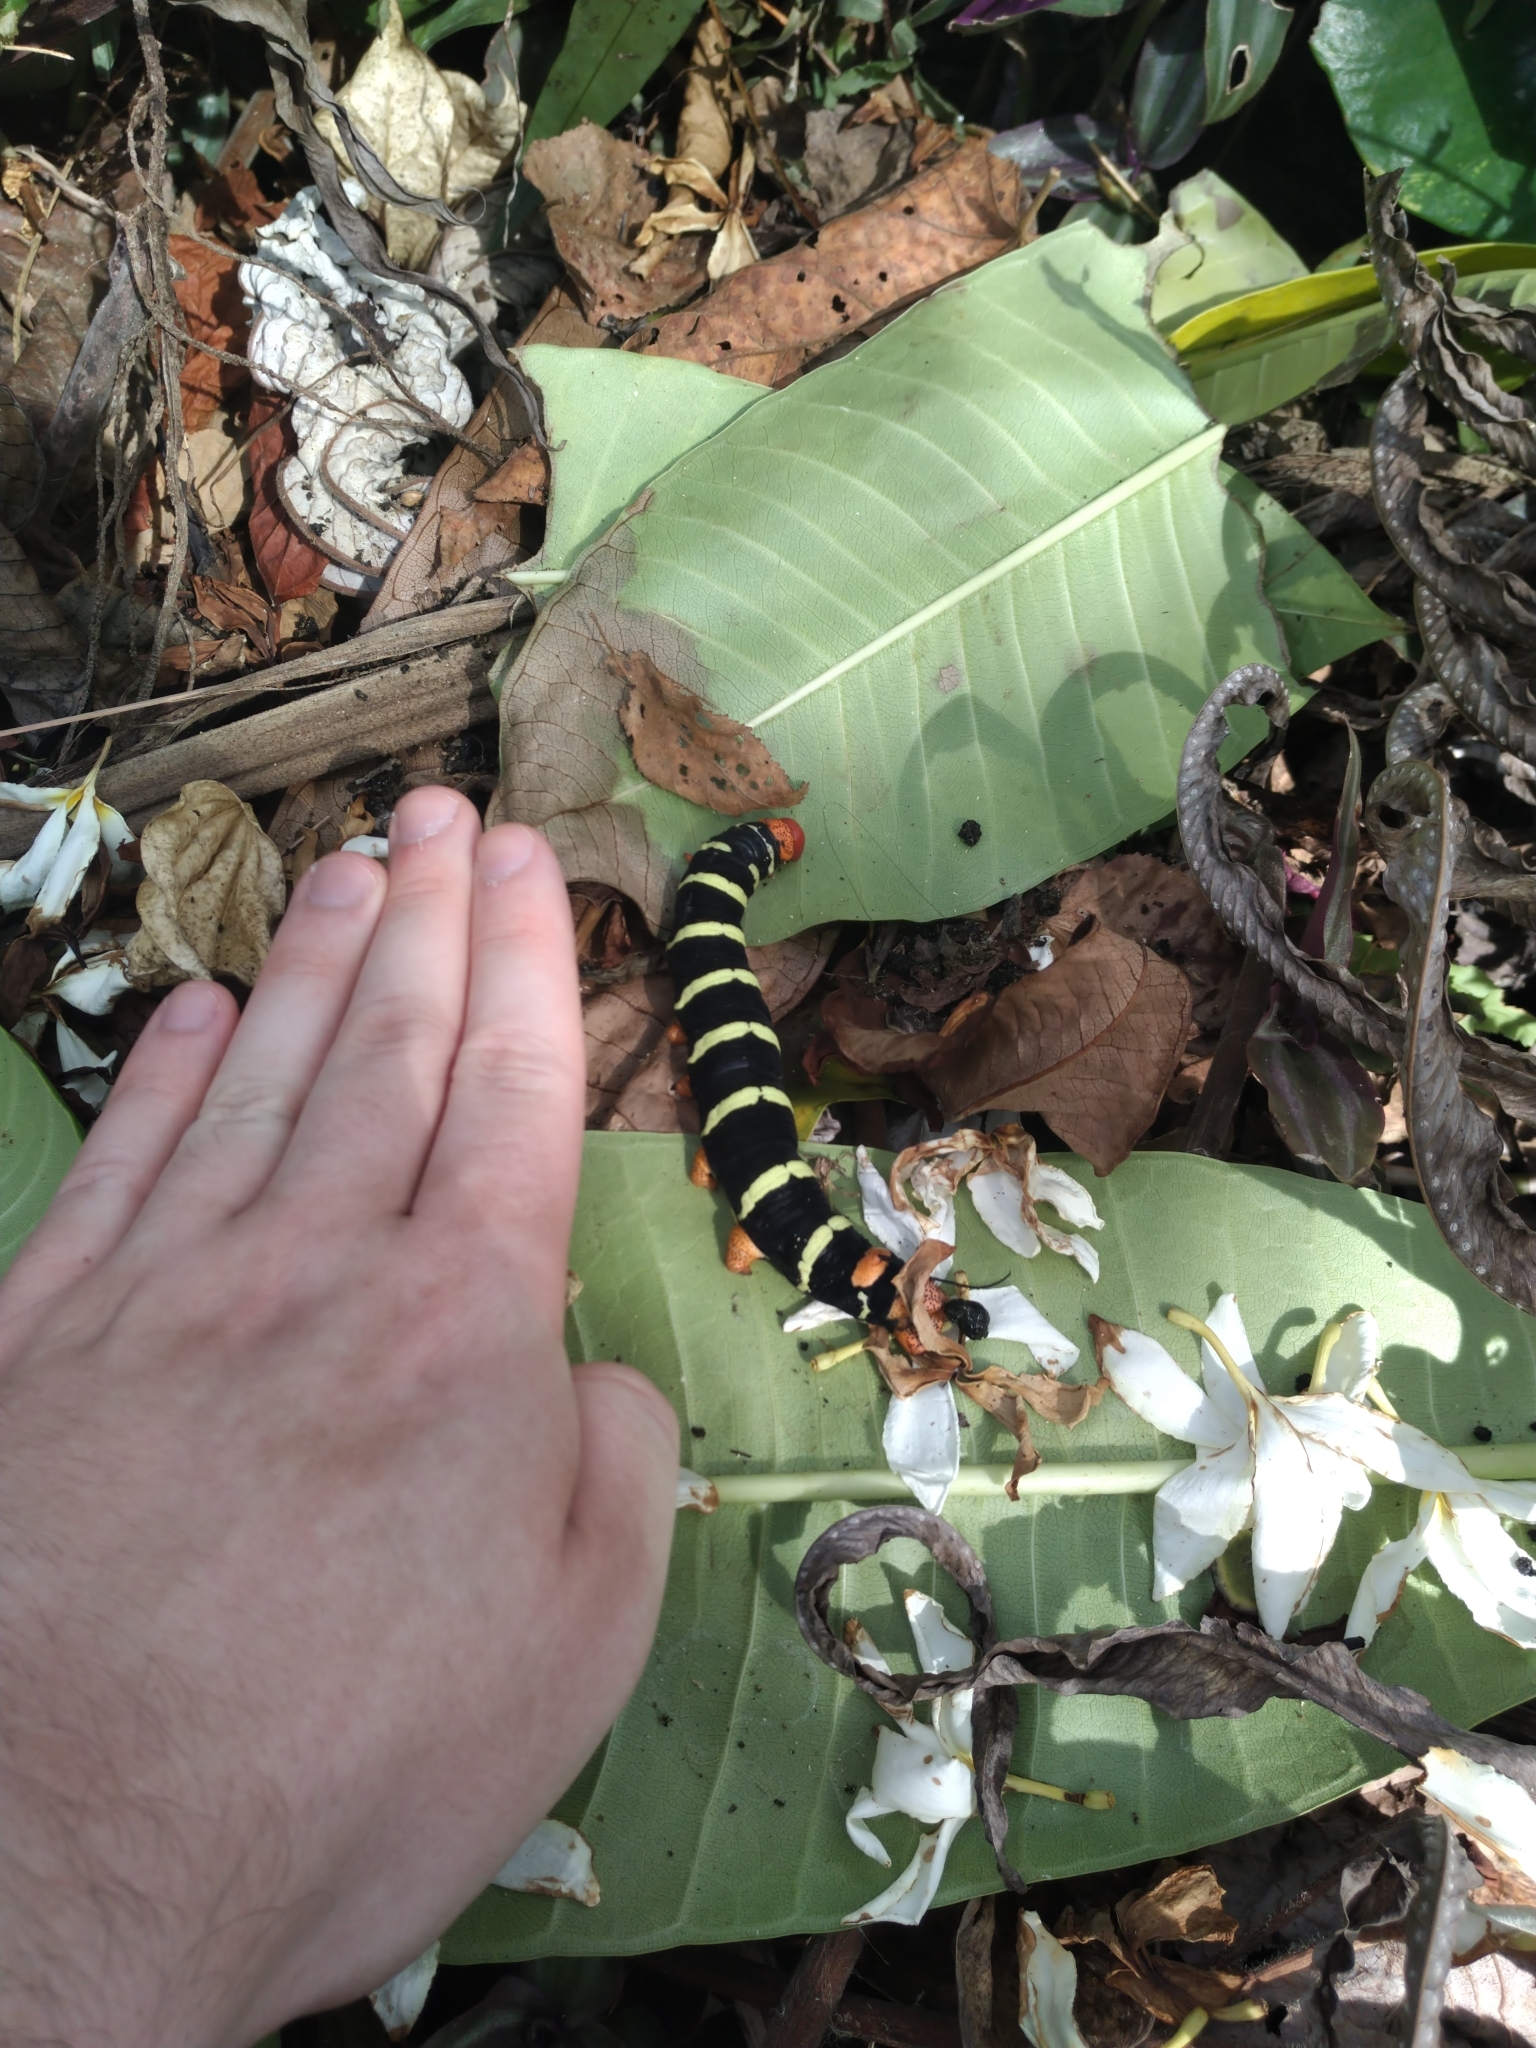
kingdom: Animalia
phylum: Arthropoda
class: Insecta
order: Lepidoptera
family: Sphingidae
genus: Pseudosphinx
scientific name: Pseudosphinx tetrio
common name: Tetrio sphinx
